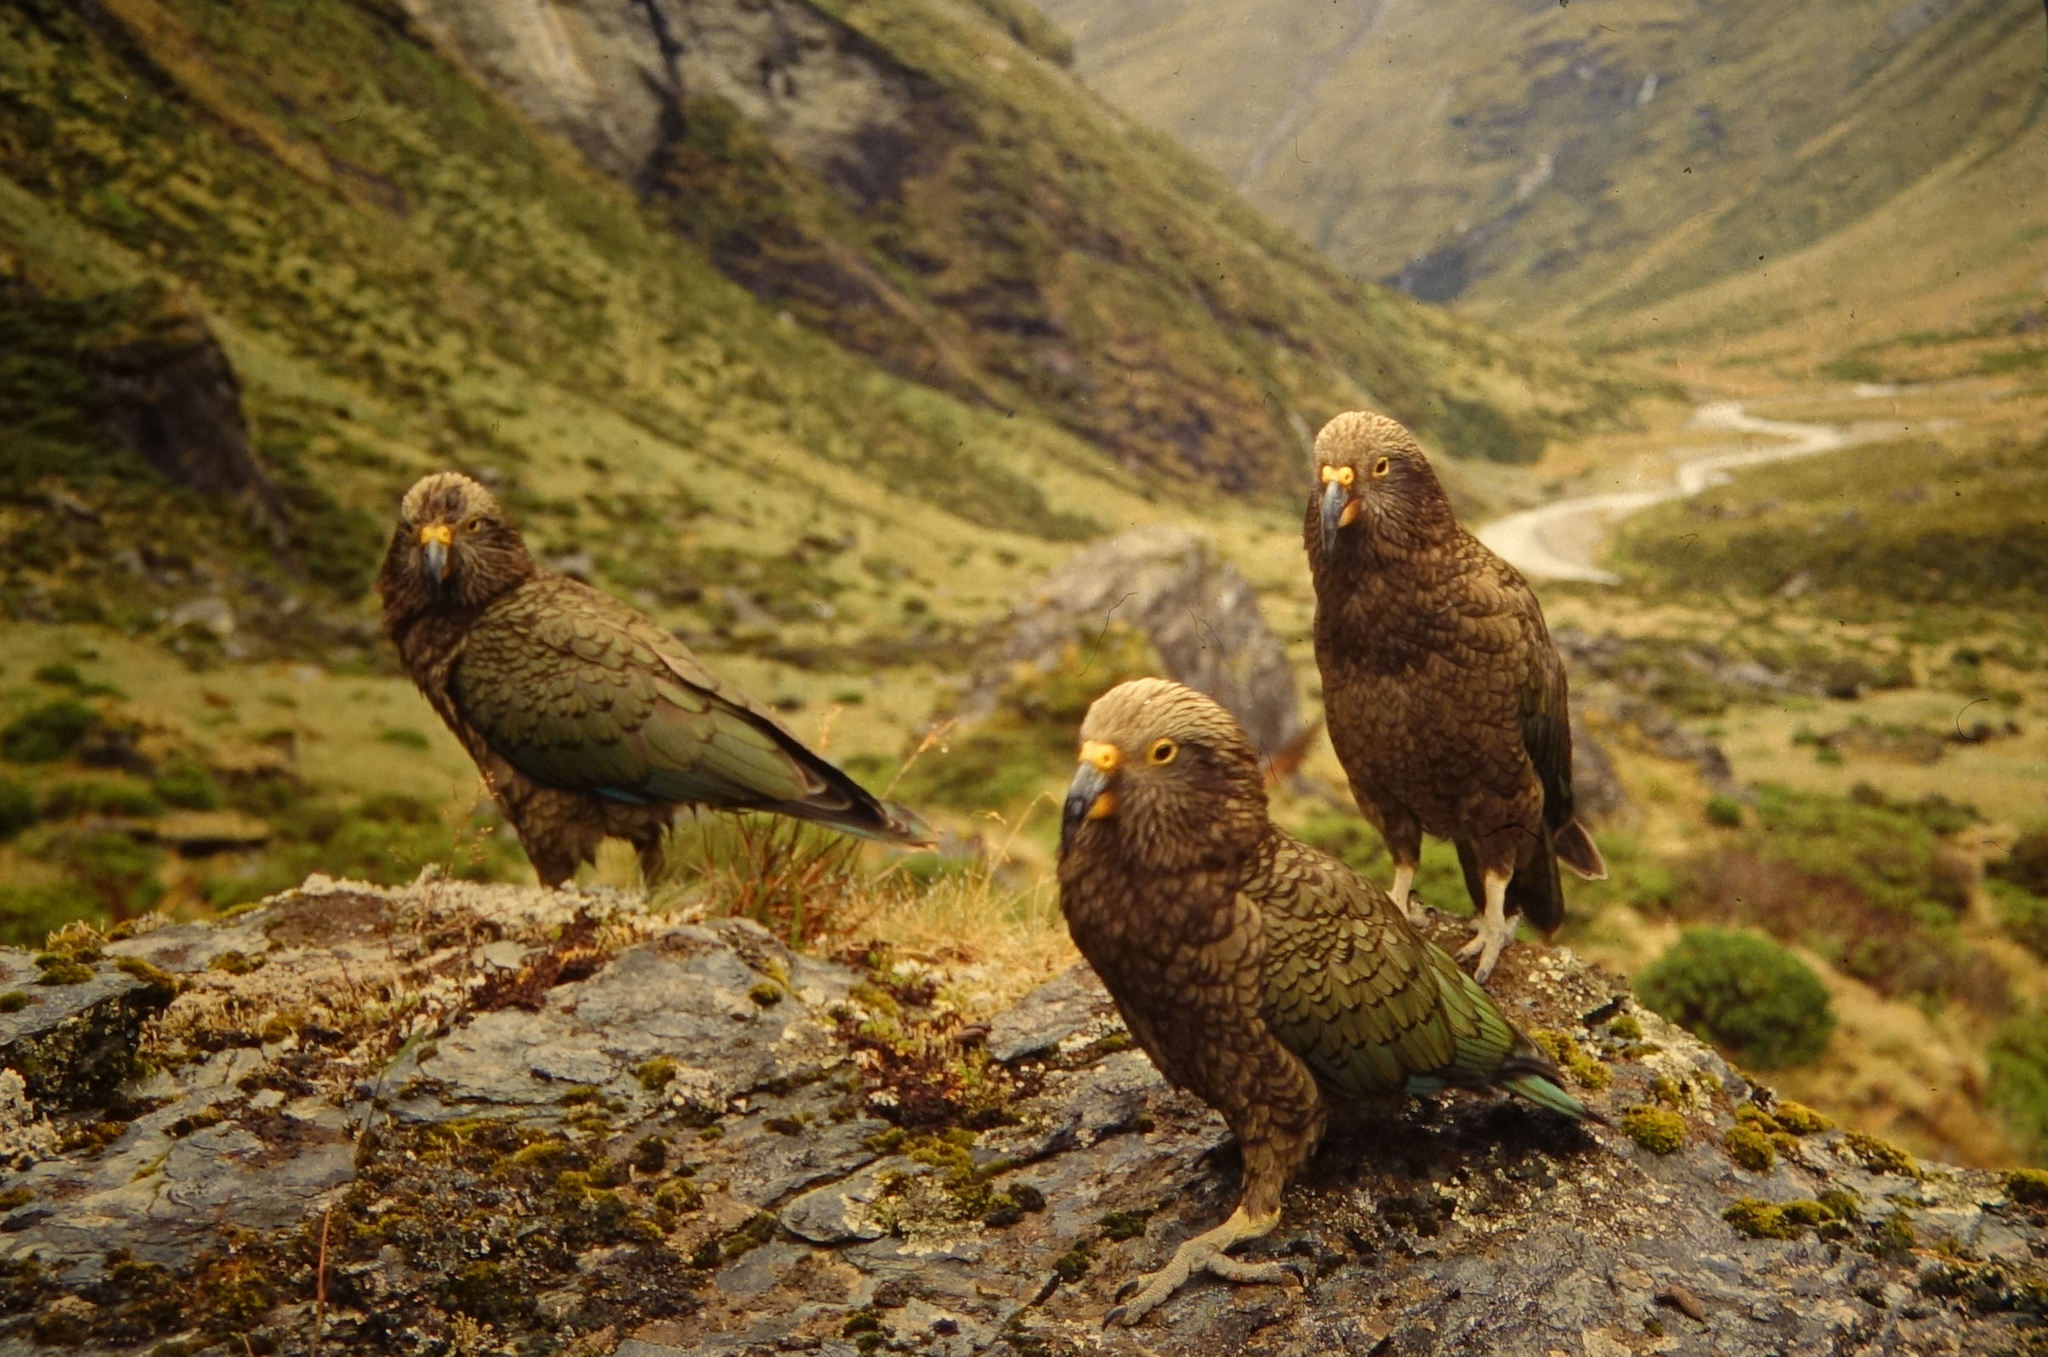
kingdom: Animalia
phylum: Chordata
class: Aves
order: Psittaciformes
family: Psittacidae
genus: Nestor
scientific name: Nestor notabilis
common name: Kea
